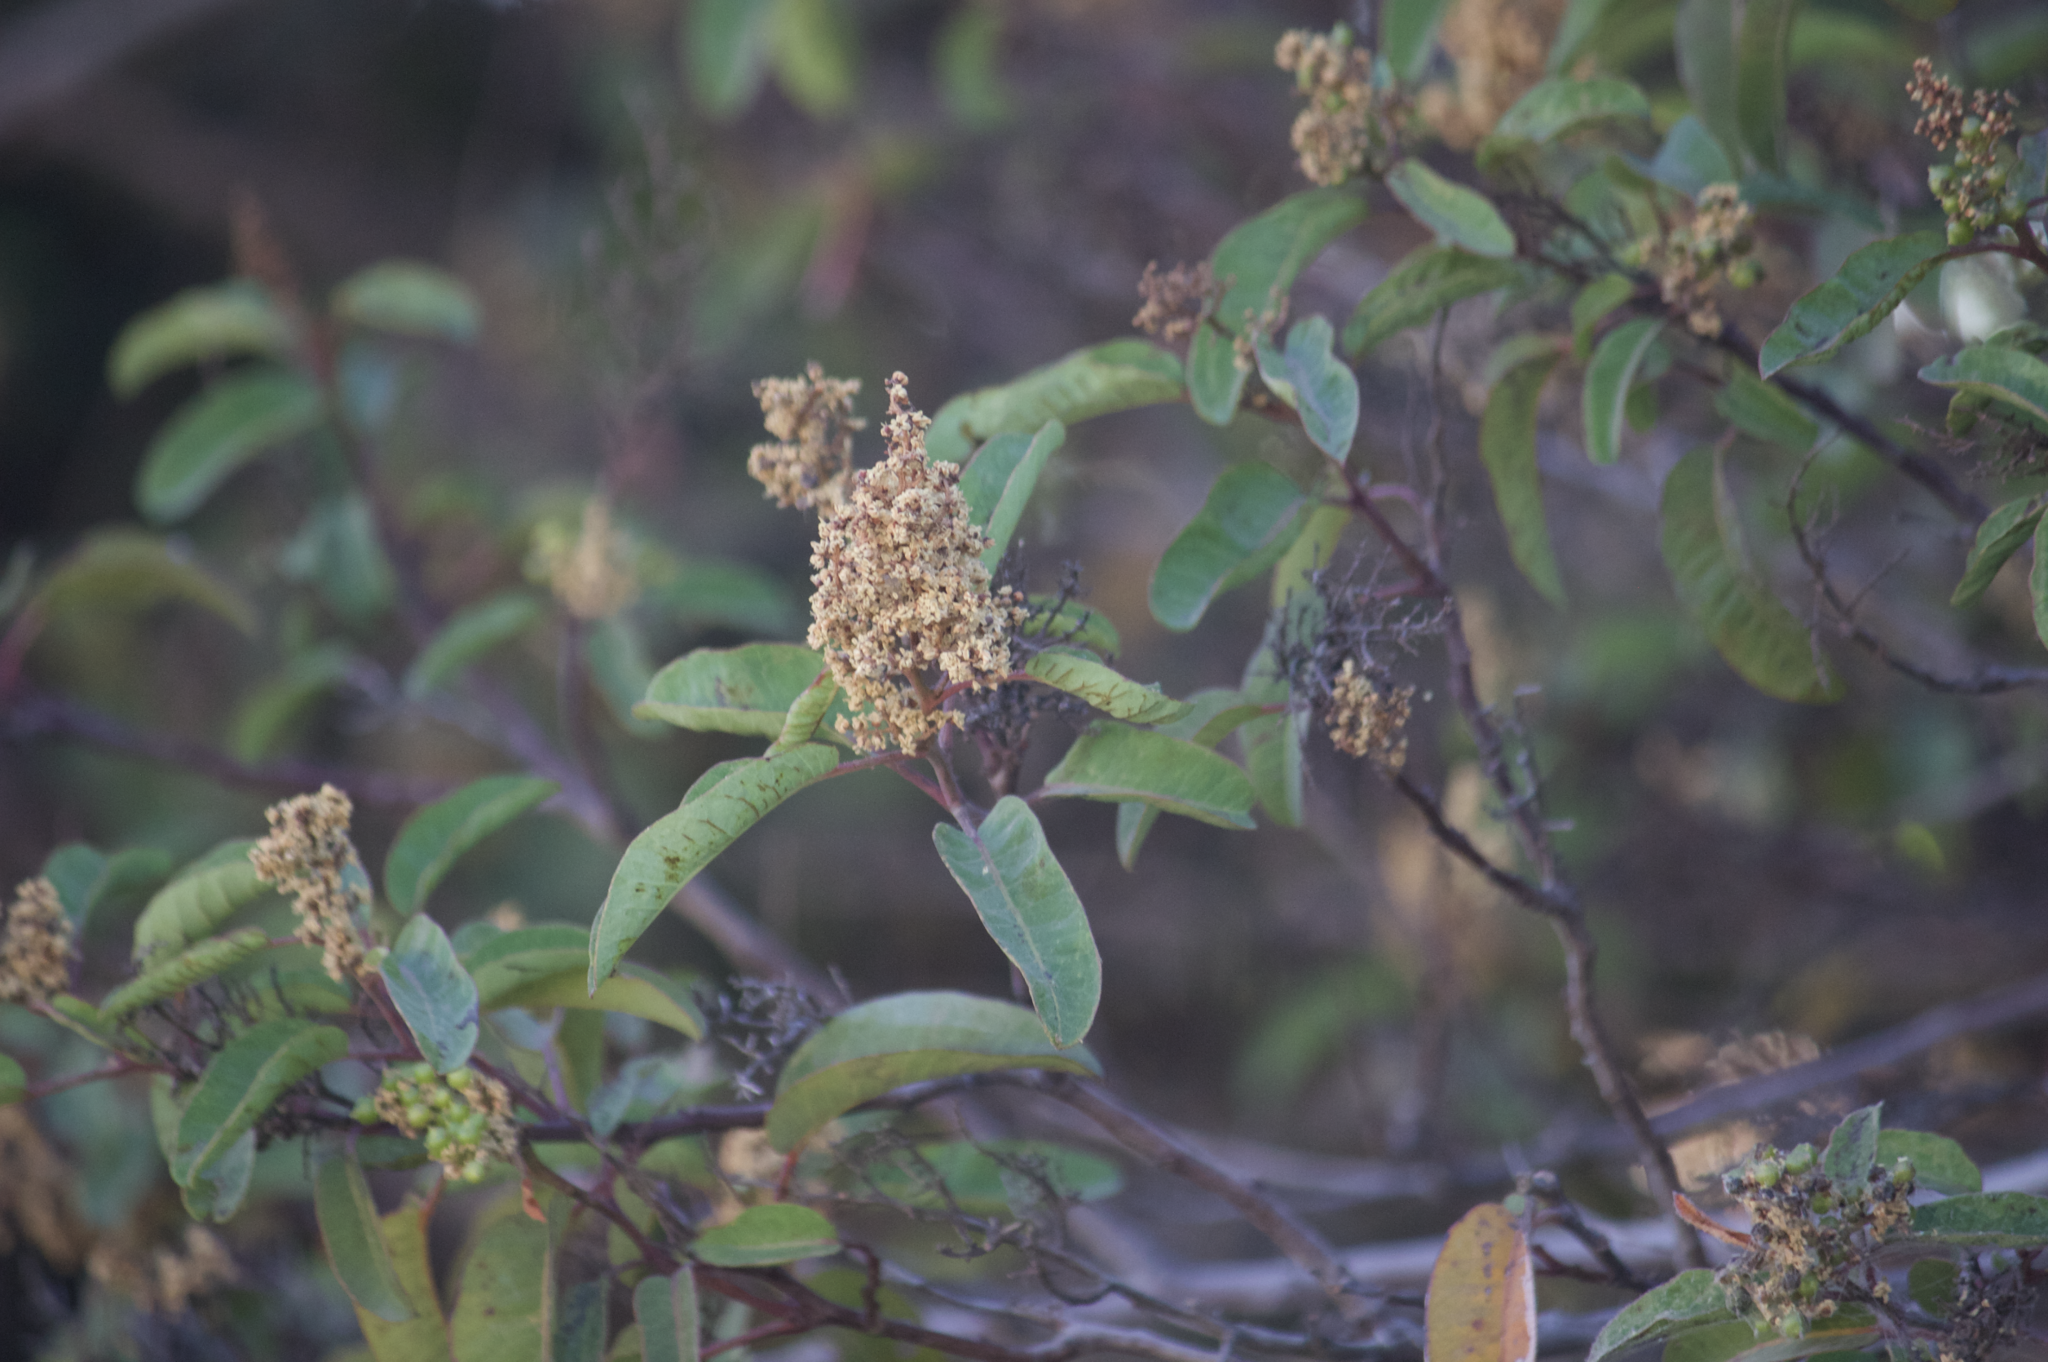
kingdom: Plantae
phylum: Tracheophyta
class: Magnoliopsida
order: Sapindales
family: Anacardiaceae
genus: Malosma
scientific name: Malosma laurina
